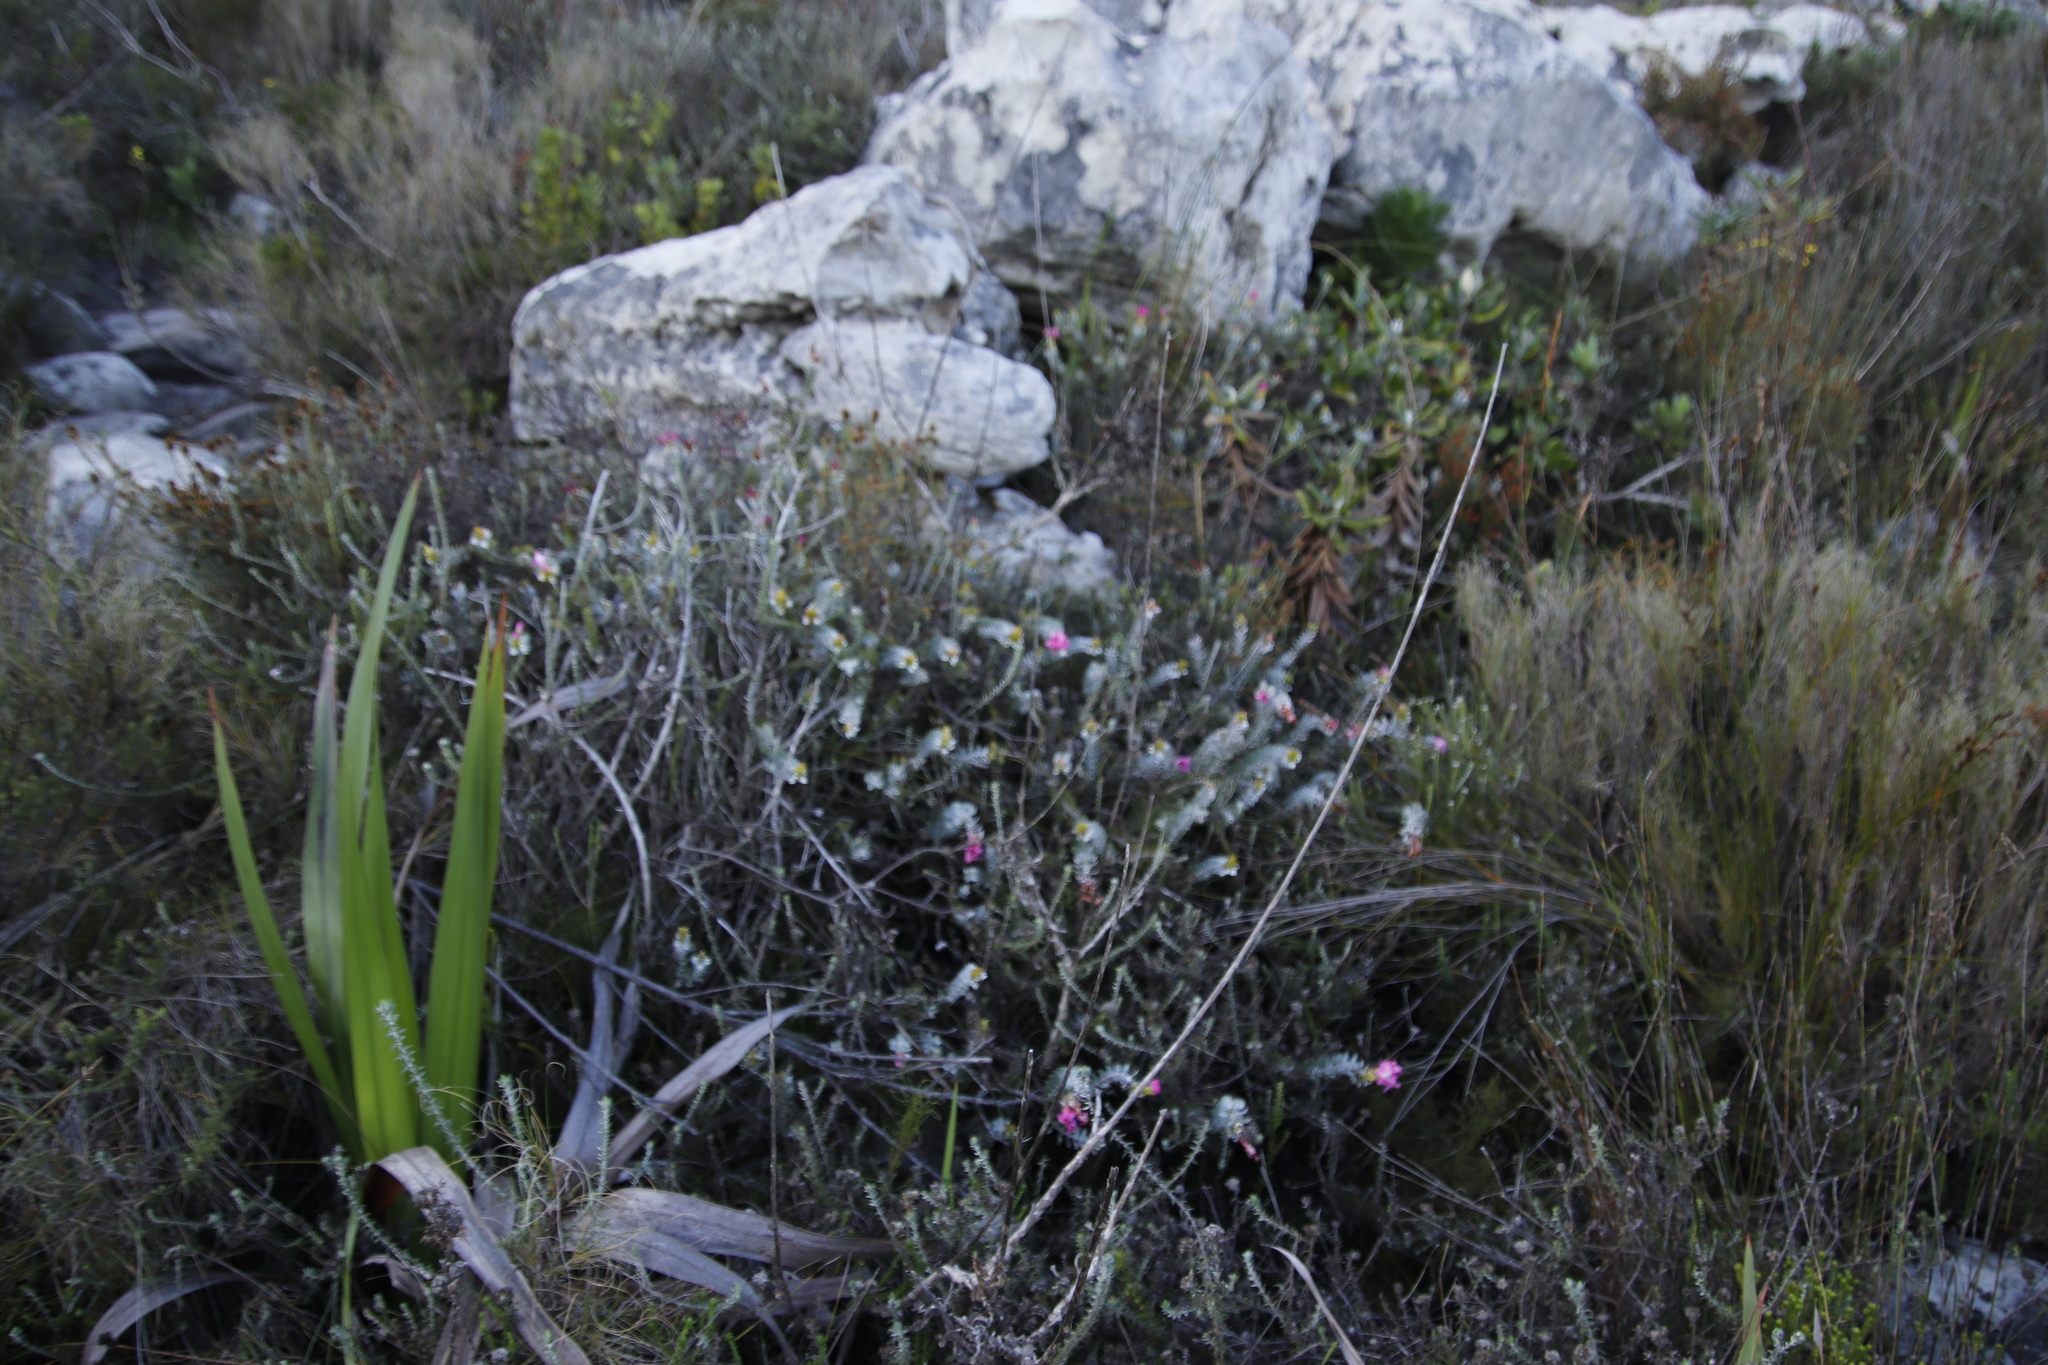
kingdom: Plantae
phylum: Tracheophyta
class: Magnoliopsida
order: Myrtales
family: Penaeaceae
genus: Saltera
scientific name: Saltera sarcocolla
